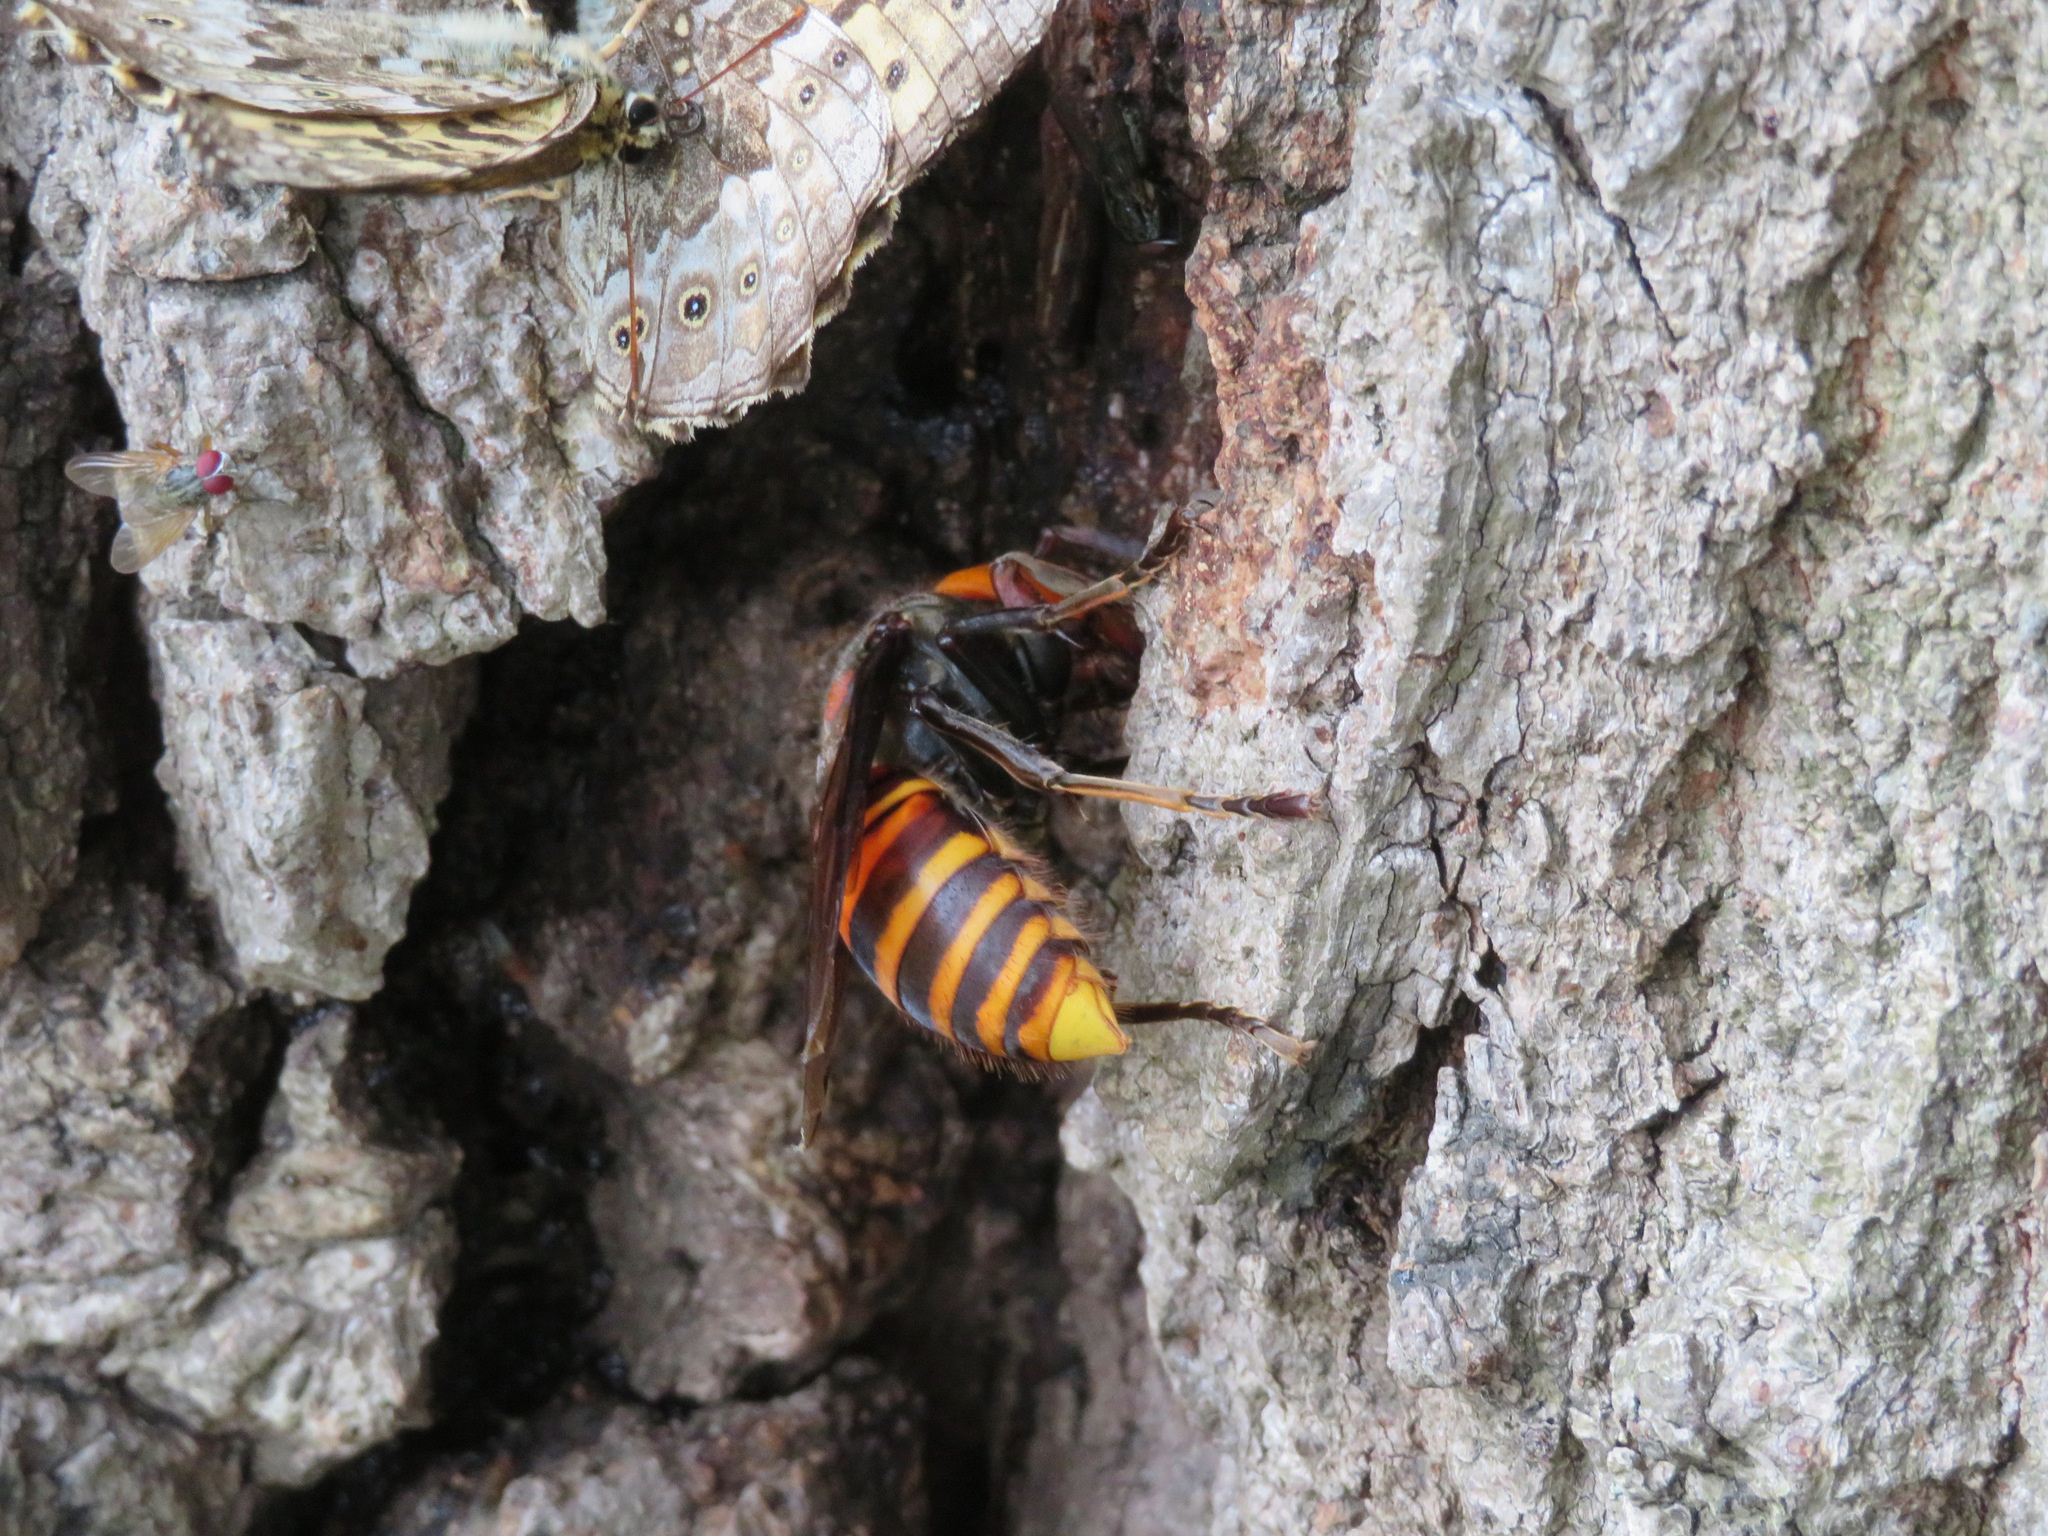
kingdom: Animalia
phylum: Arthropoda
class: Insecta
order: Hymenoptera
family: Vespidae
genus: Vespa
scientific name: Vespa mandarinia
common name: Asian giant hornet
